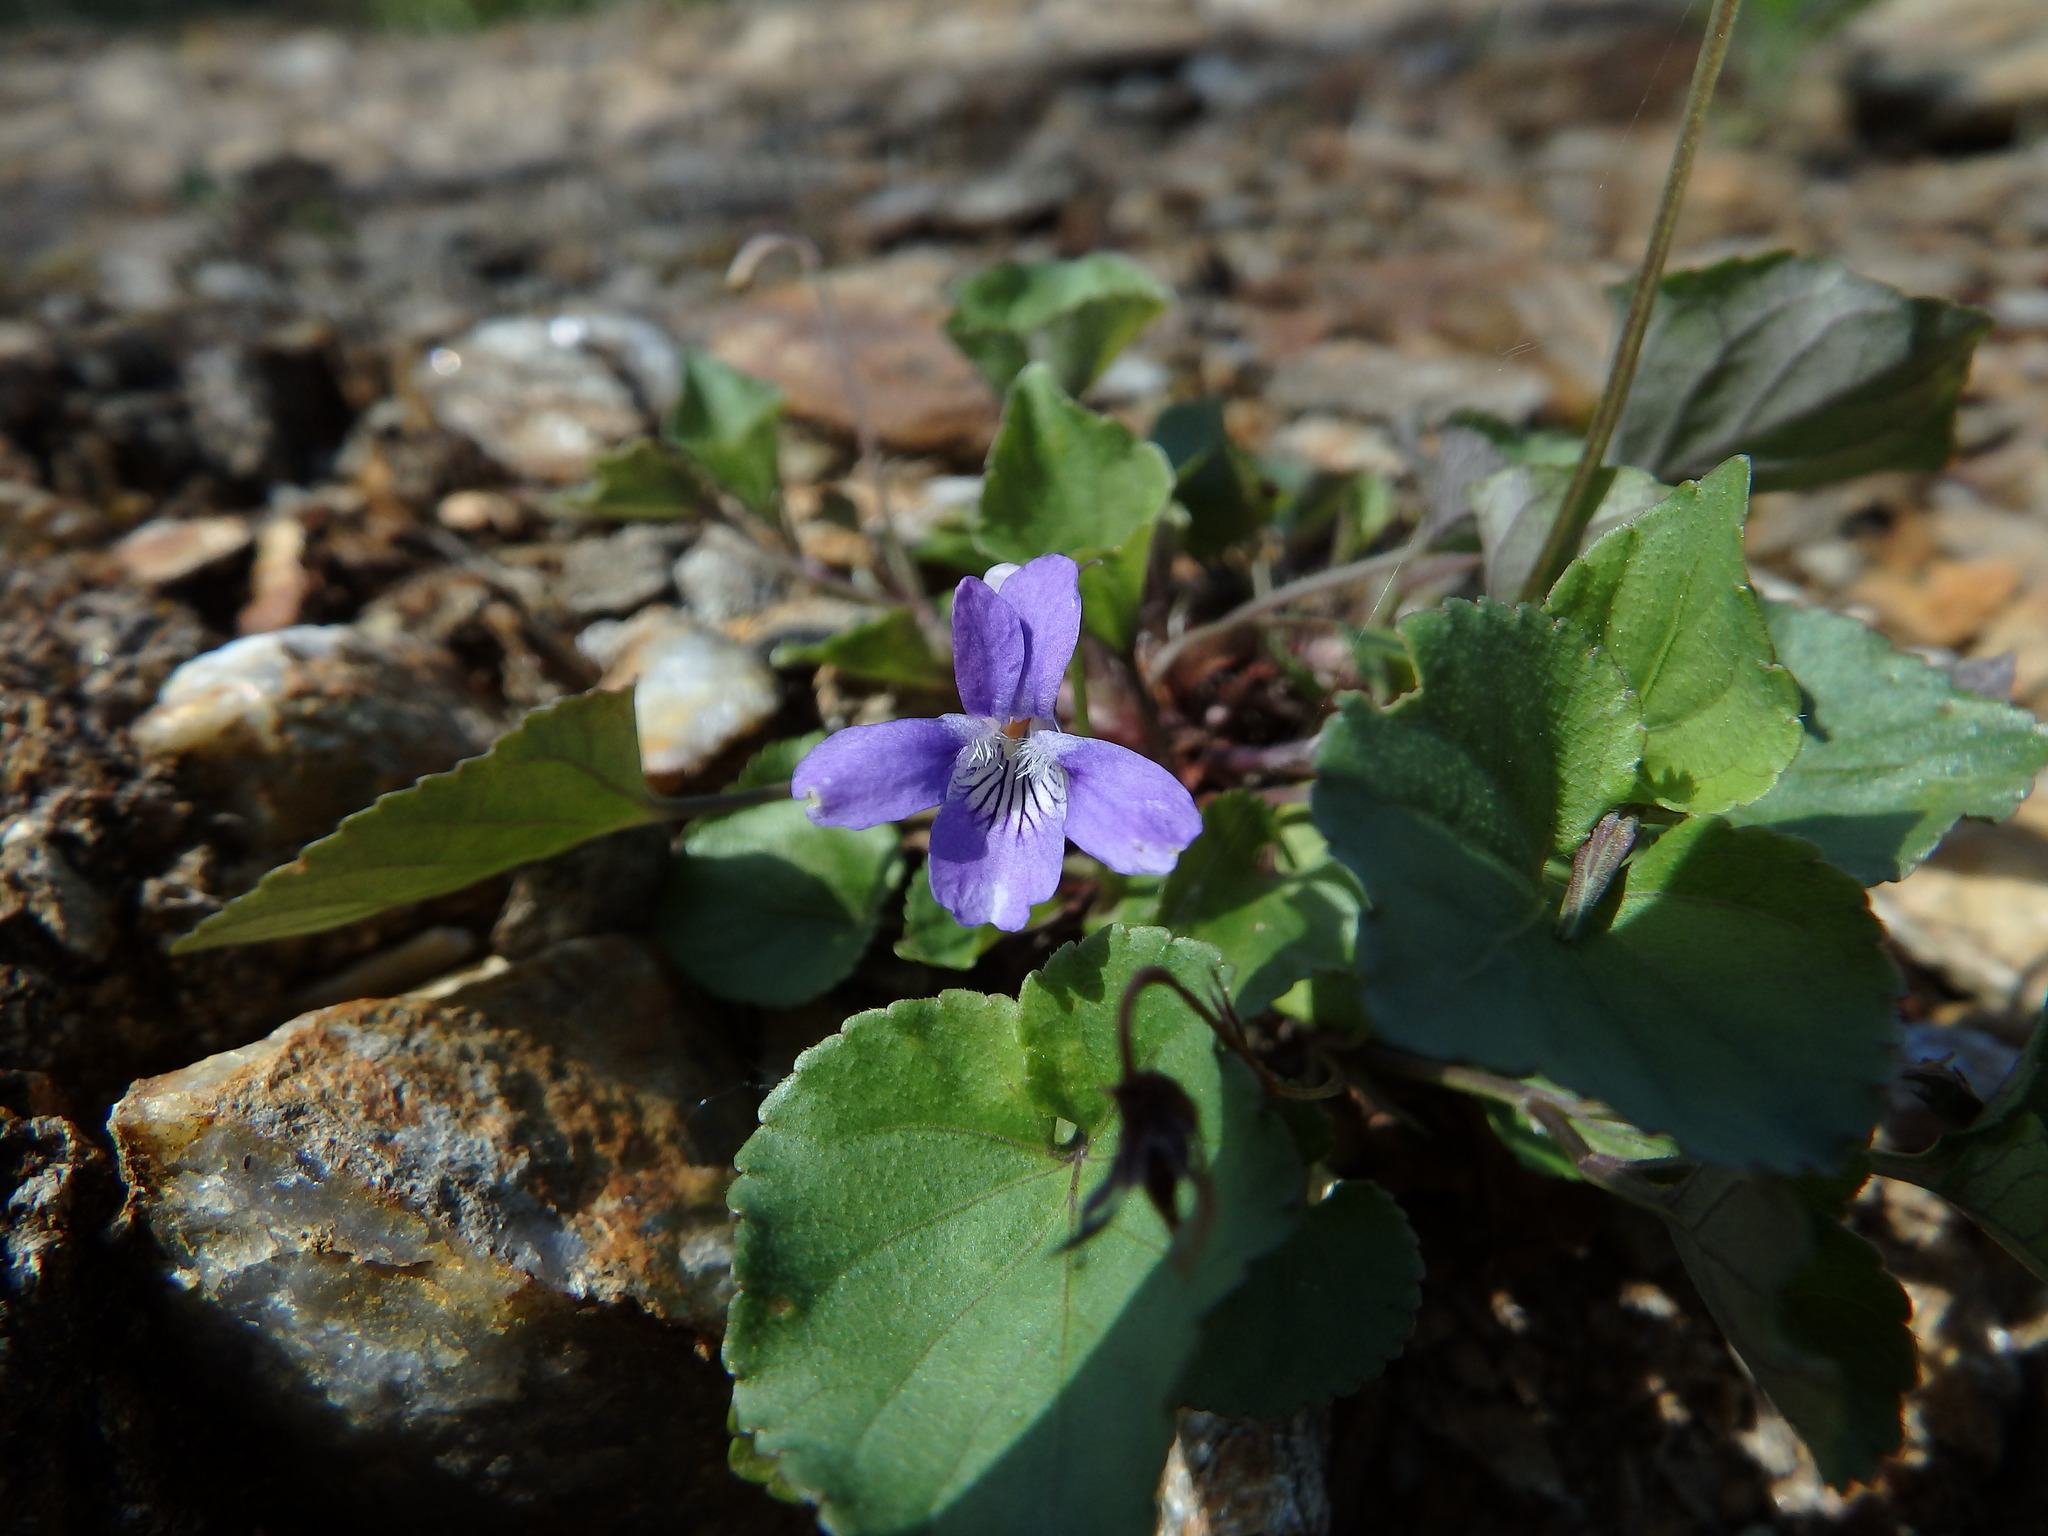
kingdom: Plantae
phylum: Tracheophyta
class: Magnoliopsida
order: Malpighiales
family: Violaceae
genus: Viola
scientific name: Viola riviniana
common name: Common dog-violet
